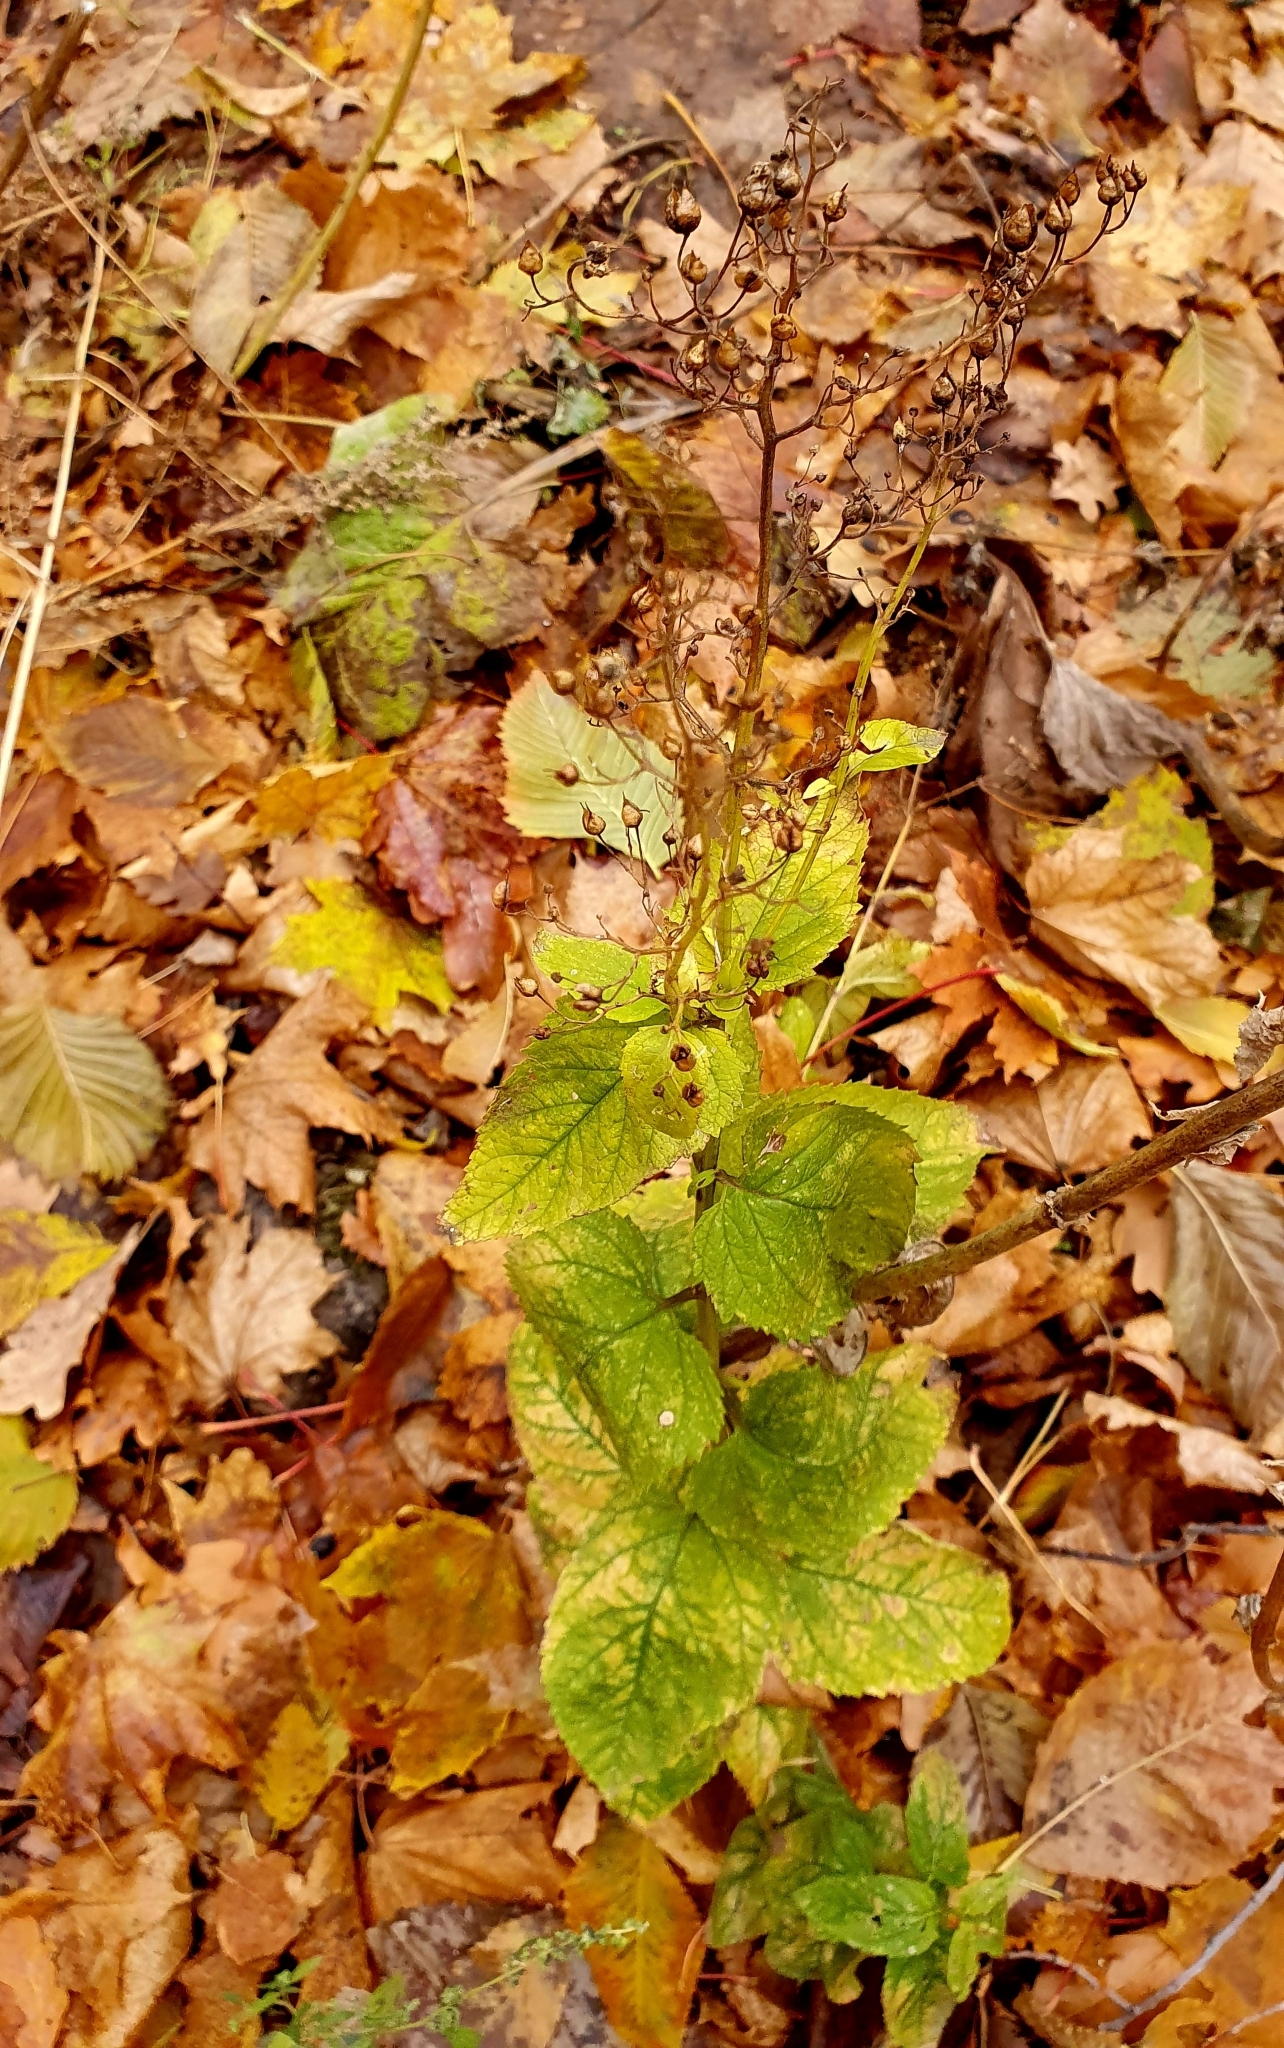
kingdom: Plantae
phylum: Tracheophyta
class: Magnoliopsida
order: Lamiales
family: Scrophulariaceae
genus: Scrophularia
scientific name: Scrophularia nodosa
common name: Common figwort
